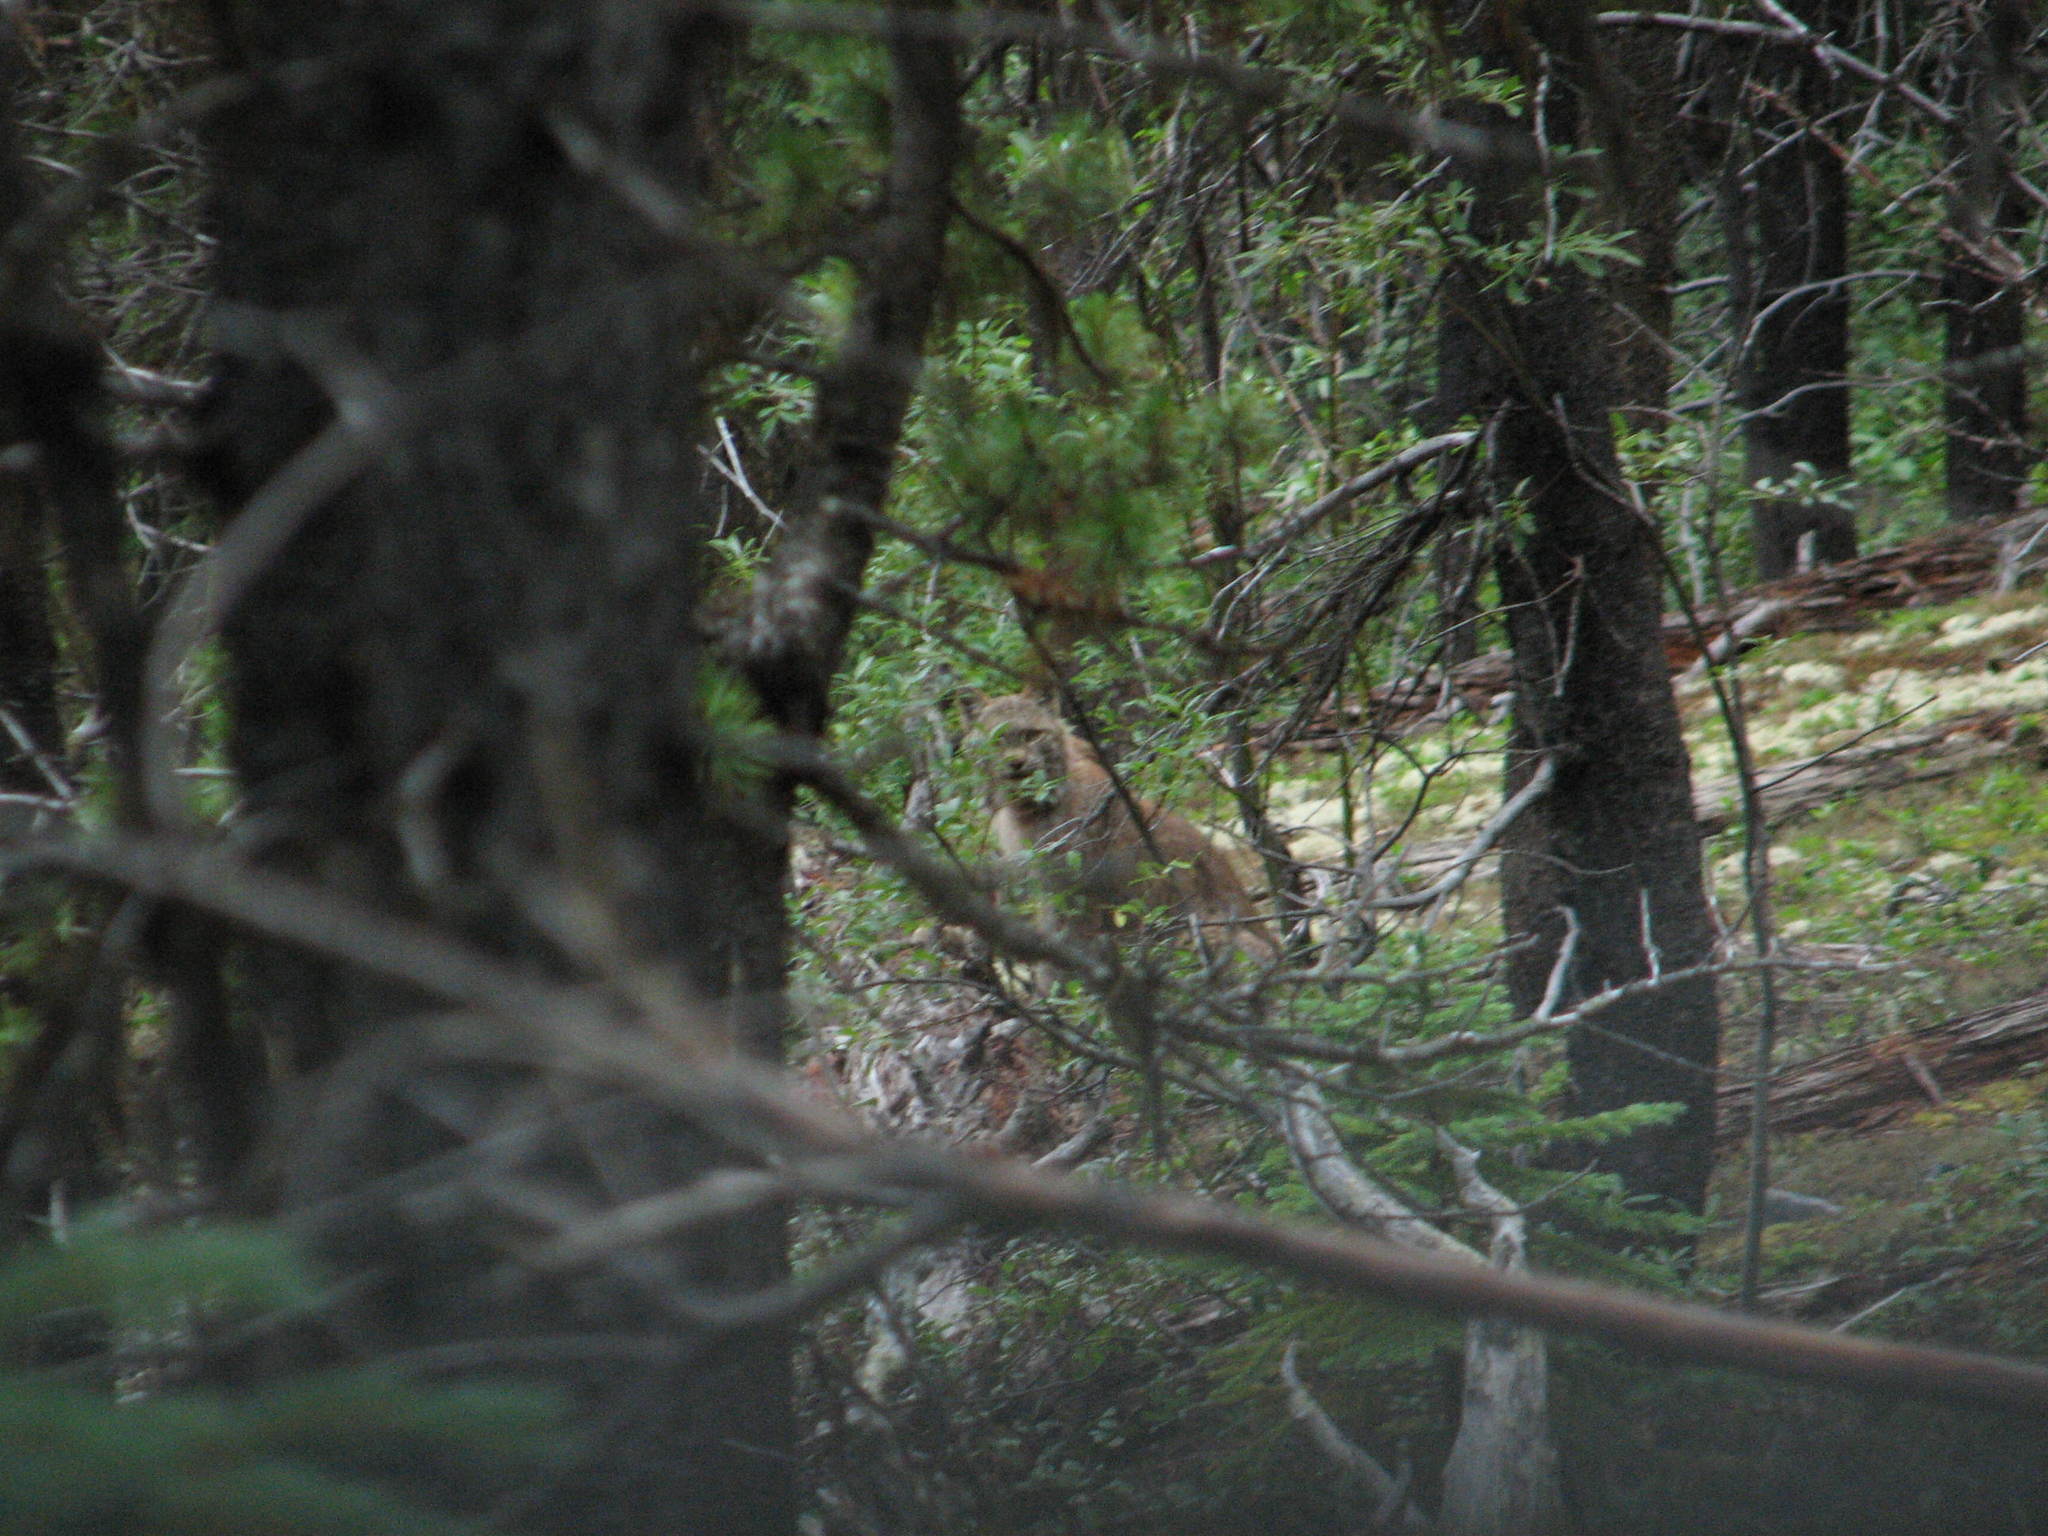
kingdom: Animalia
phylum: Chordata
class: Mammalia
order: Carnivora
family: Felidae
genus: Lynx
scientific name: Lynx canadensis
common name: Canadian lynx
